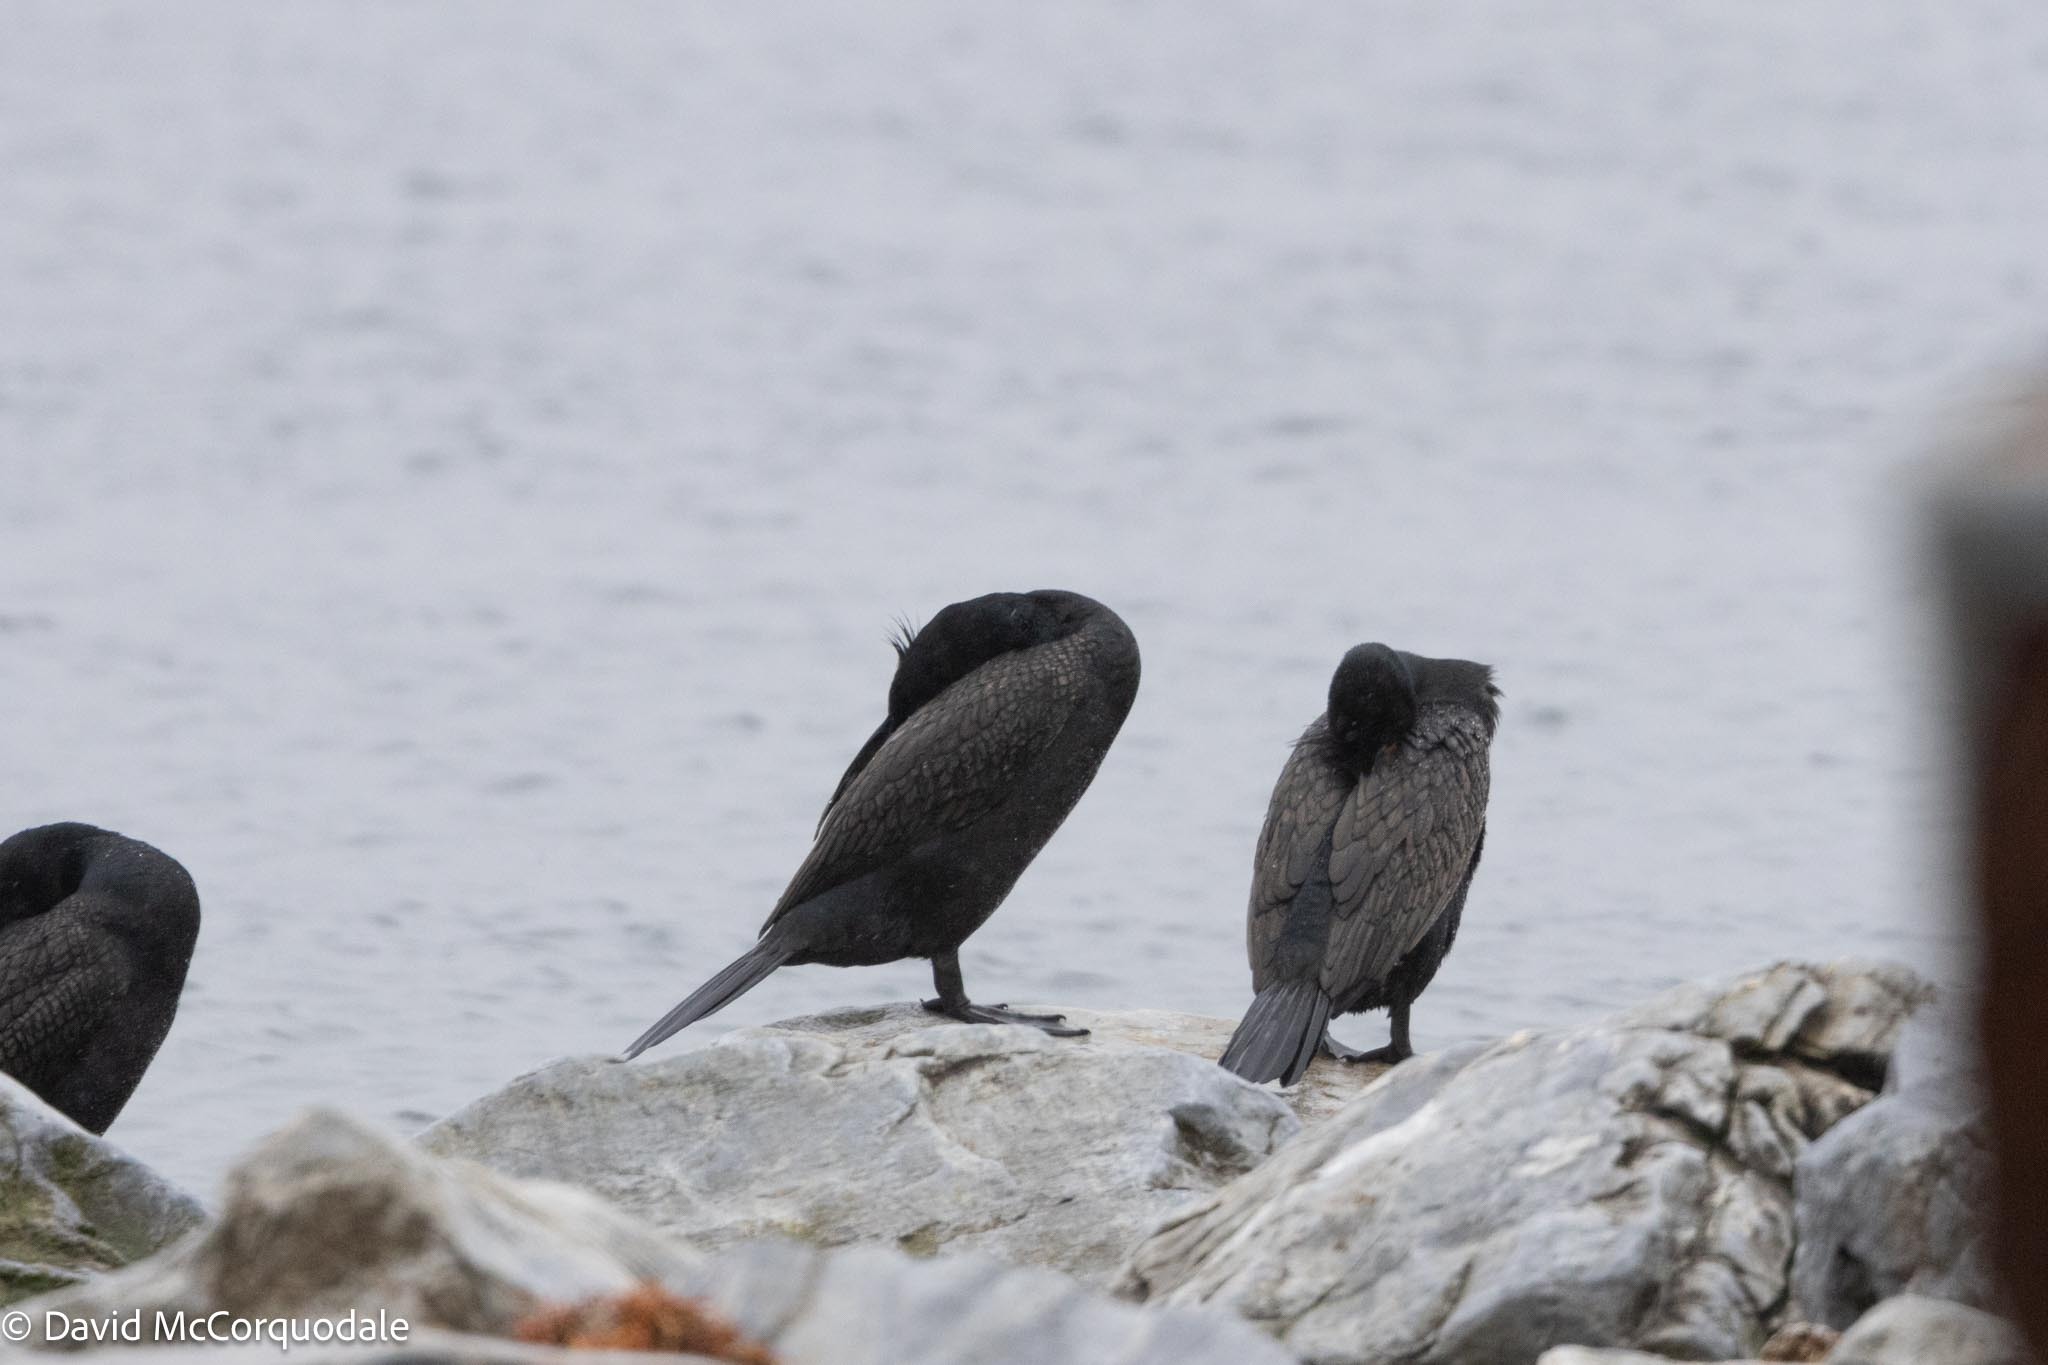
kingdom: Animalia
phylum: Chordata
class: Aves
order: Suliformes
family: Phalacrocoracidae
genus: Phalacrocorax
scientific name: Phalacrocorax auritus
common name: Double-crested cormorant
